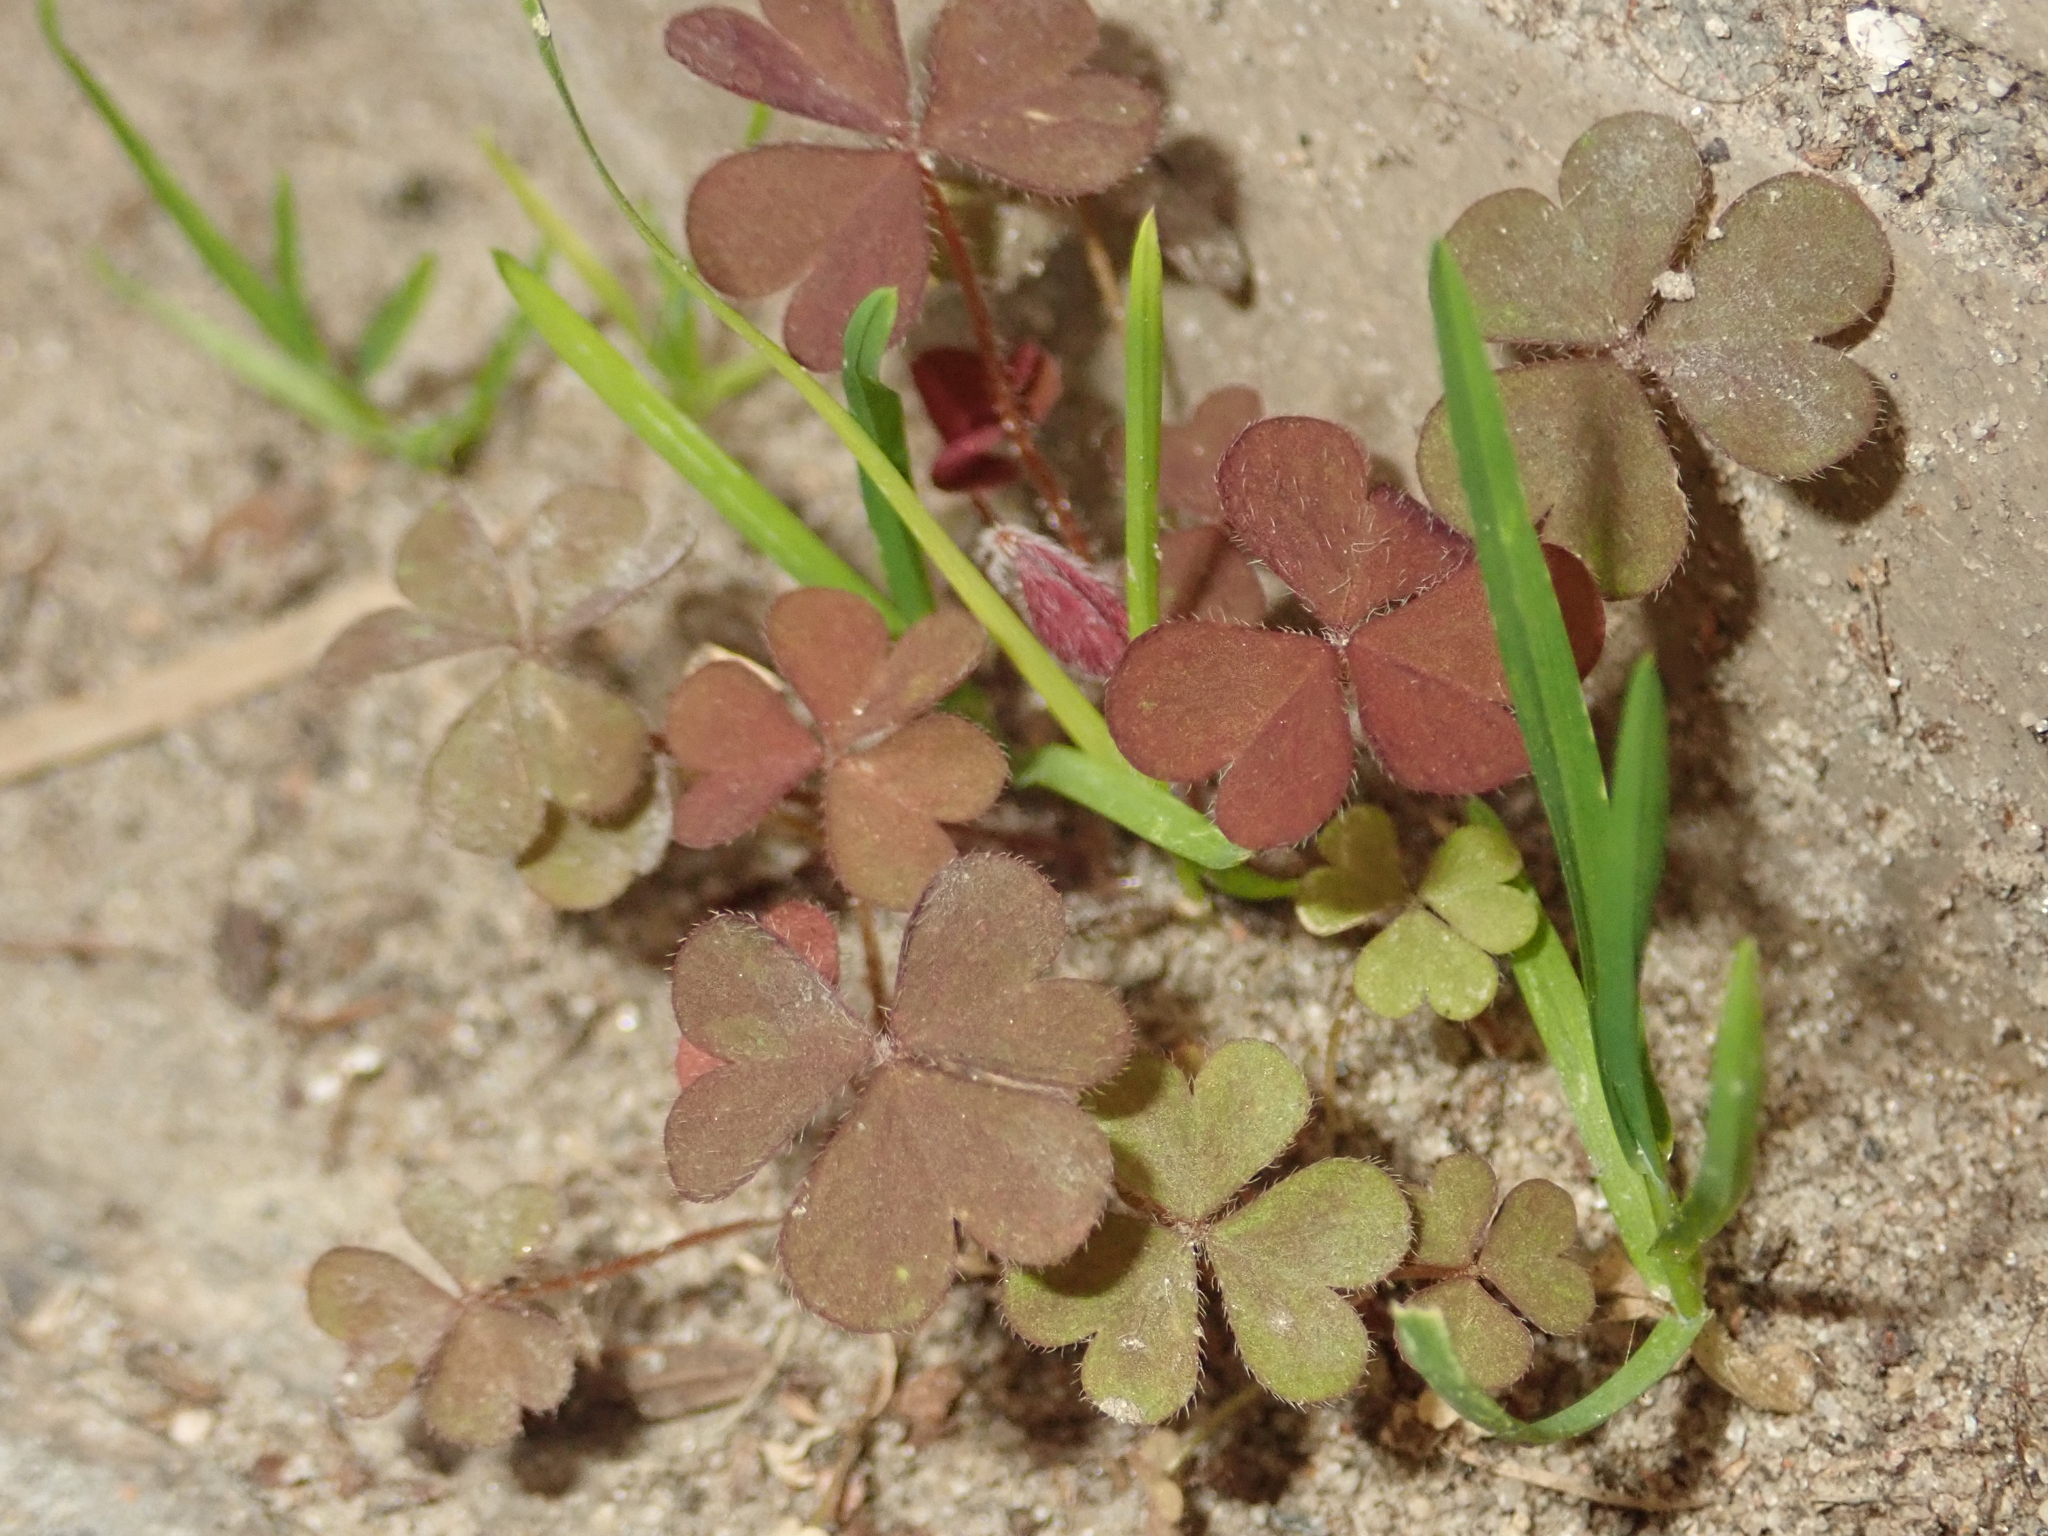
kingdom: Plantae
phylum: Tracheophyta
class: Magnoliopsida
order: Oxalidales
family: Oxalidaceae
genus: Oxalis
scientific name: Oxalis corniculata
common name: Procumbent yellow-sorrel
